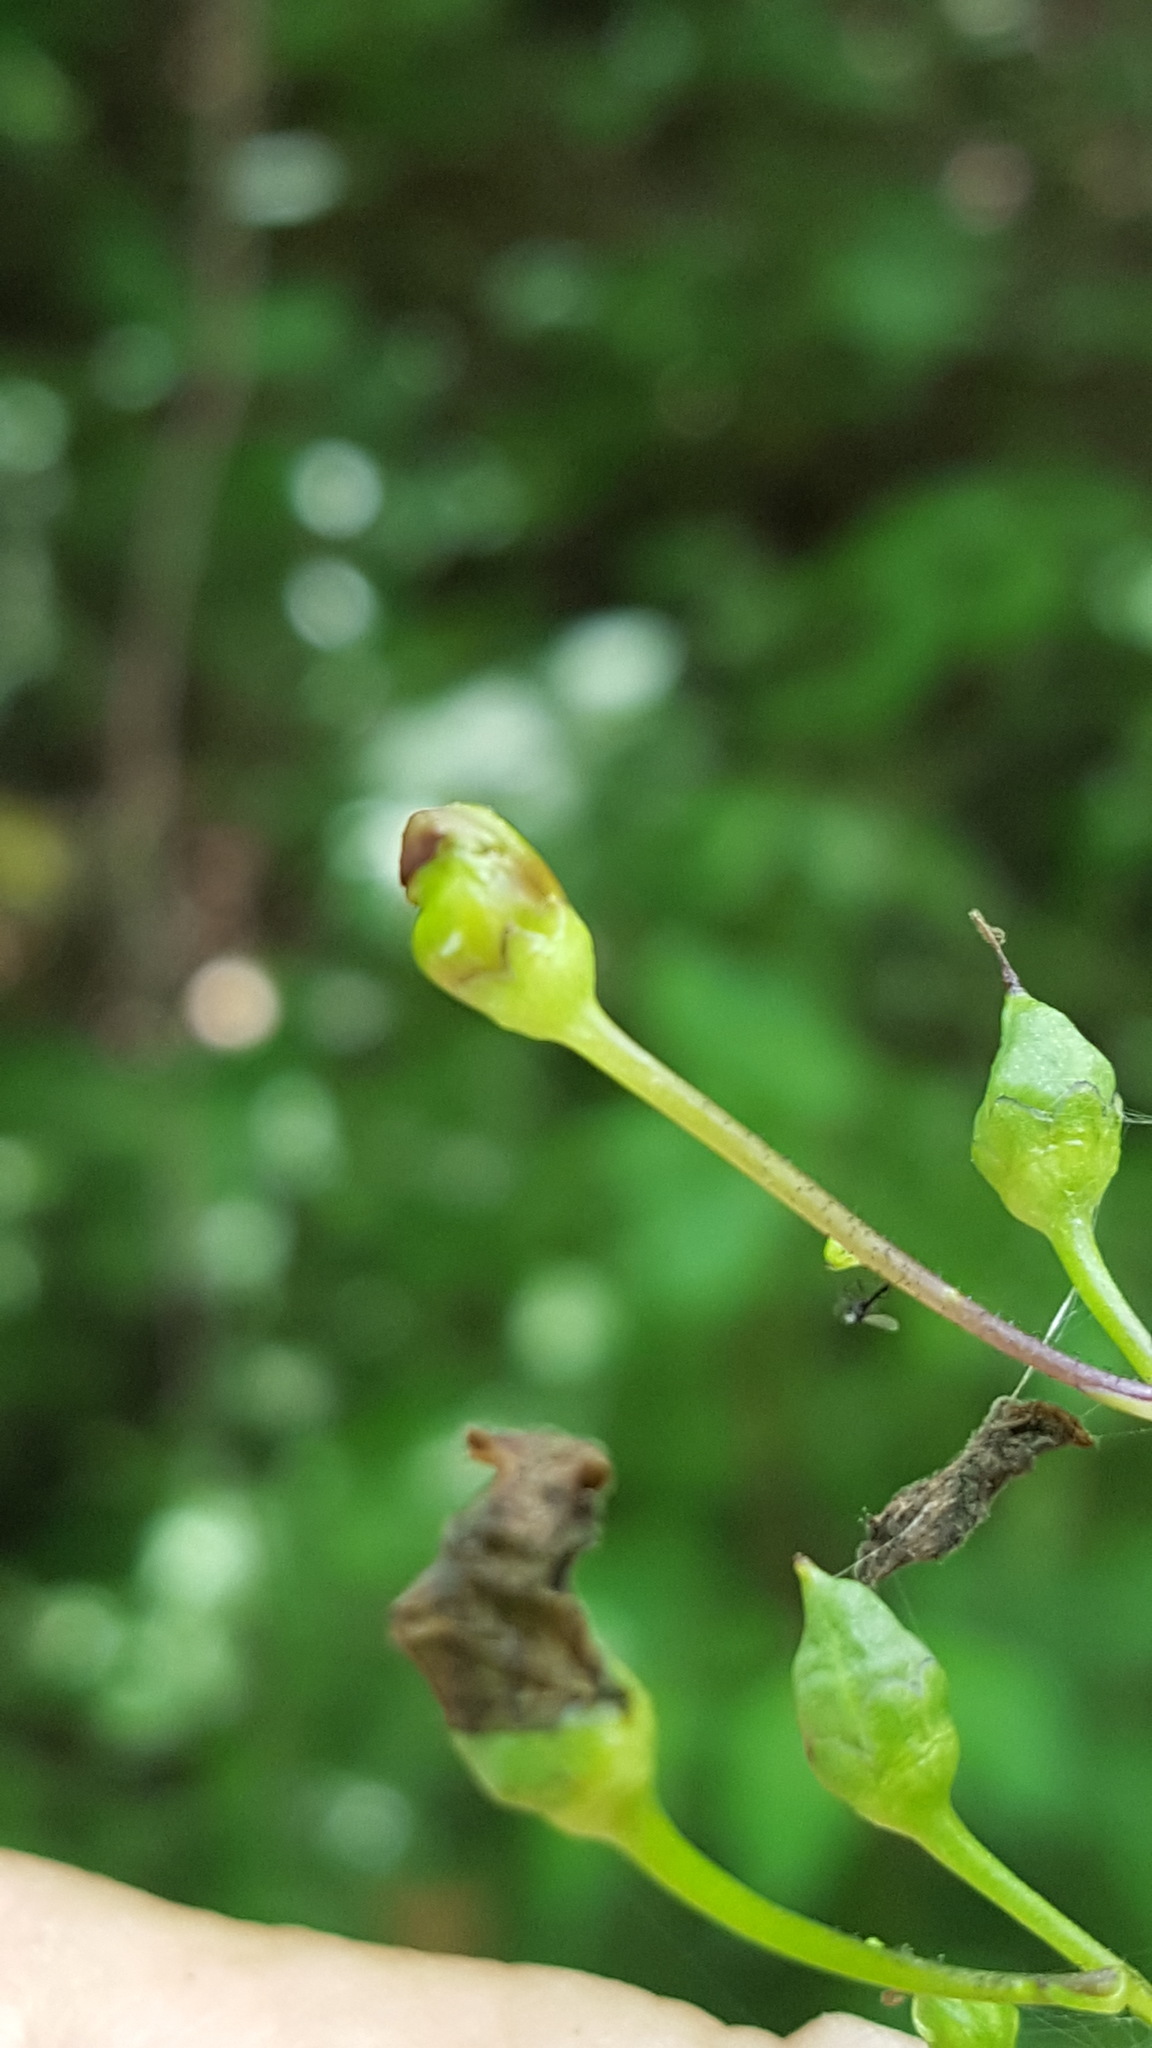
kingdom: Plantae
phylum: Tracheophyta
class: Magnoliopsida
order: Lamiales
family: Scrophulariaceae
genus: Scrophularia
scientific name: Scrophularia lanceolata
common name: American figwort
